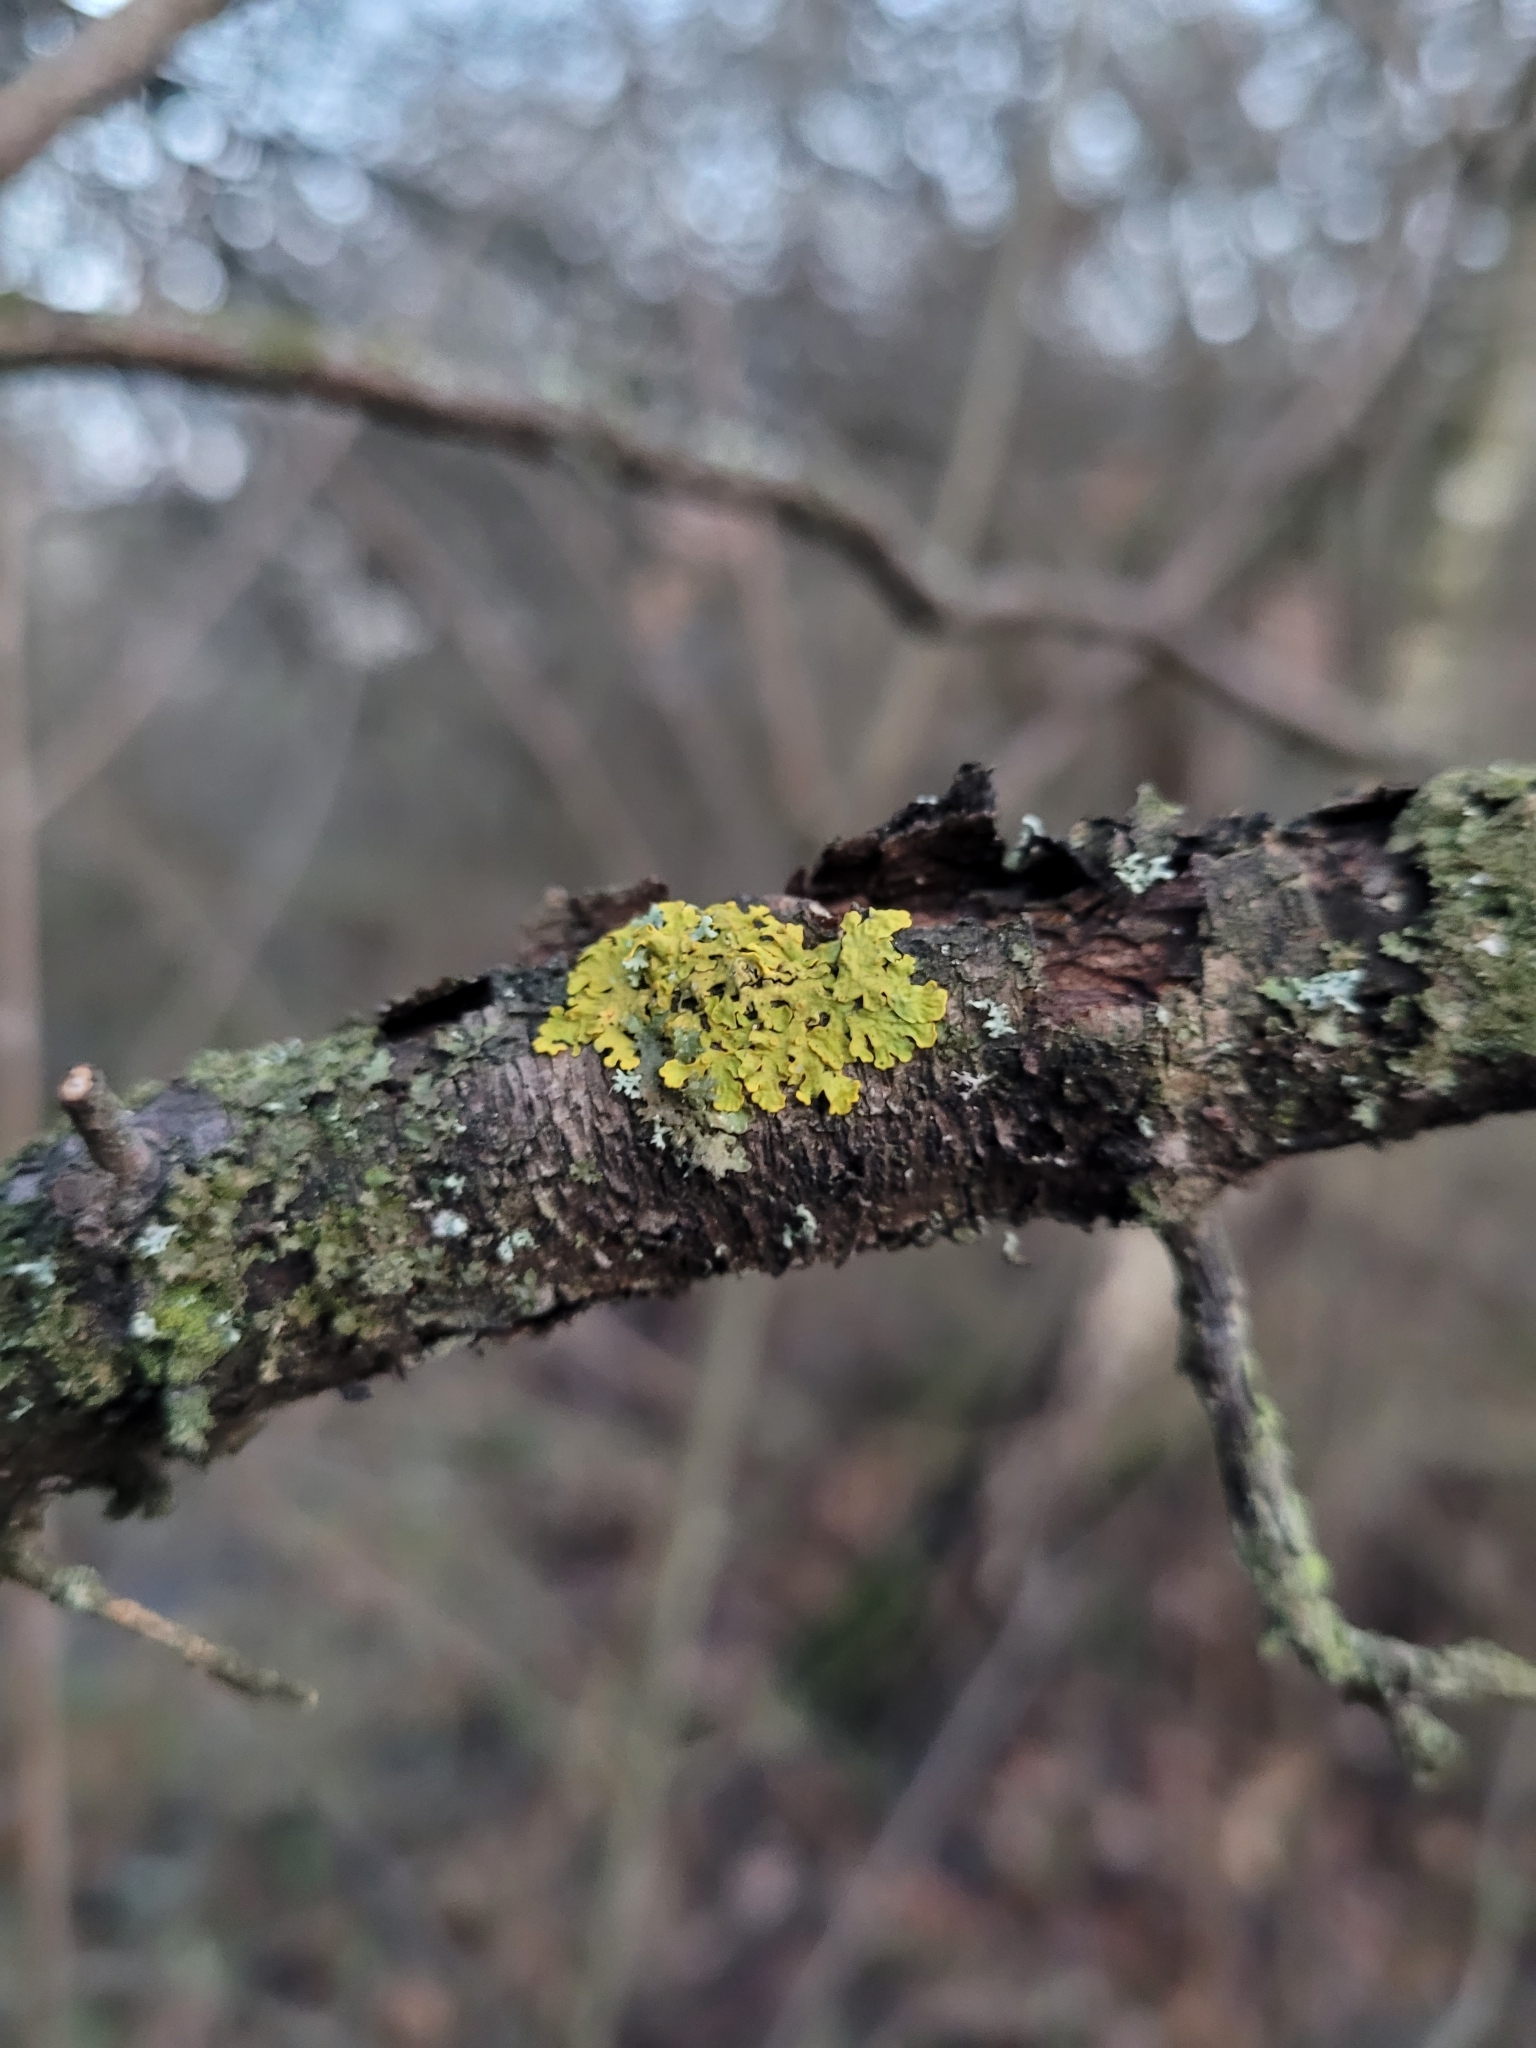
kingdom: Fungi
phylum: Ascomycota
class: Lecanoromycetes
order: Teloschistales
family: Teloschistaceae
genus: Xanthoria
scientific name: Xanthoria parietina
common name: Common orange lichen
